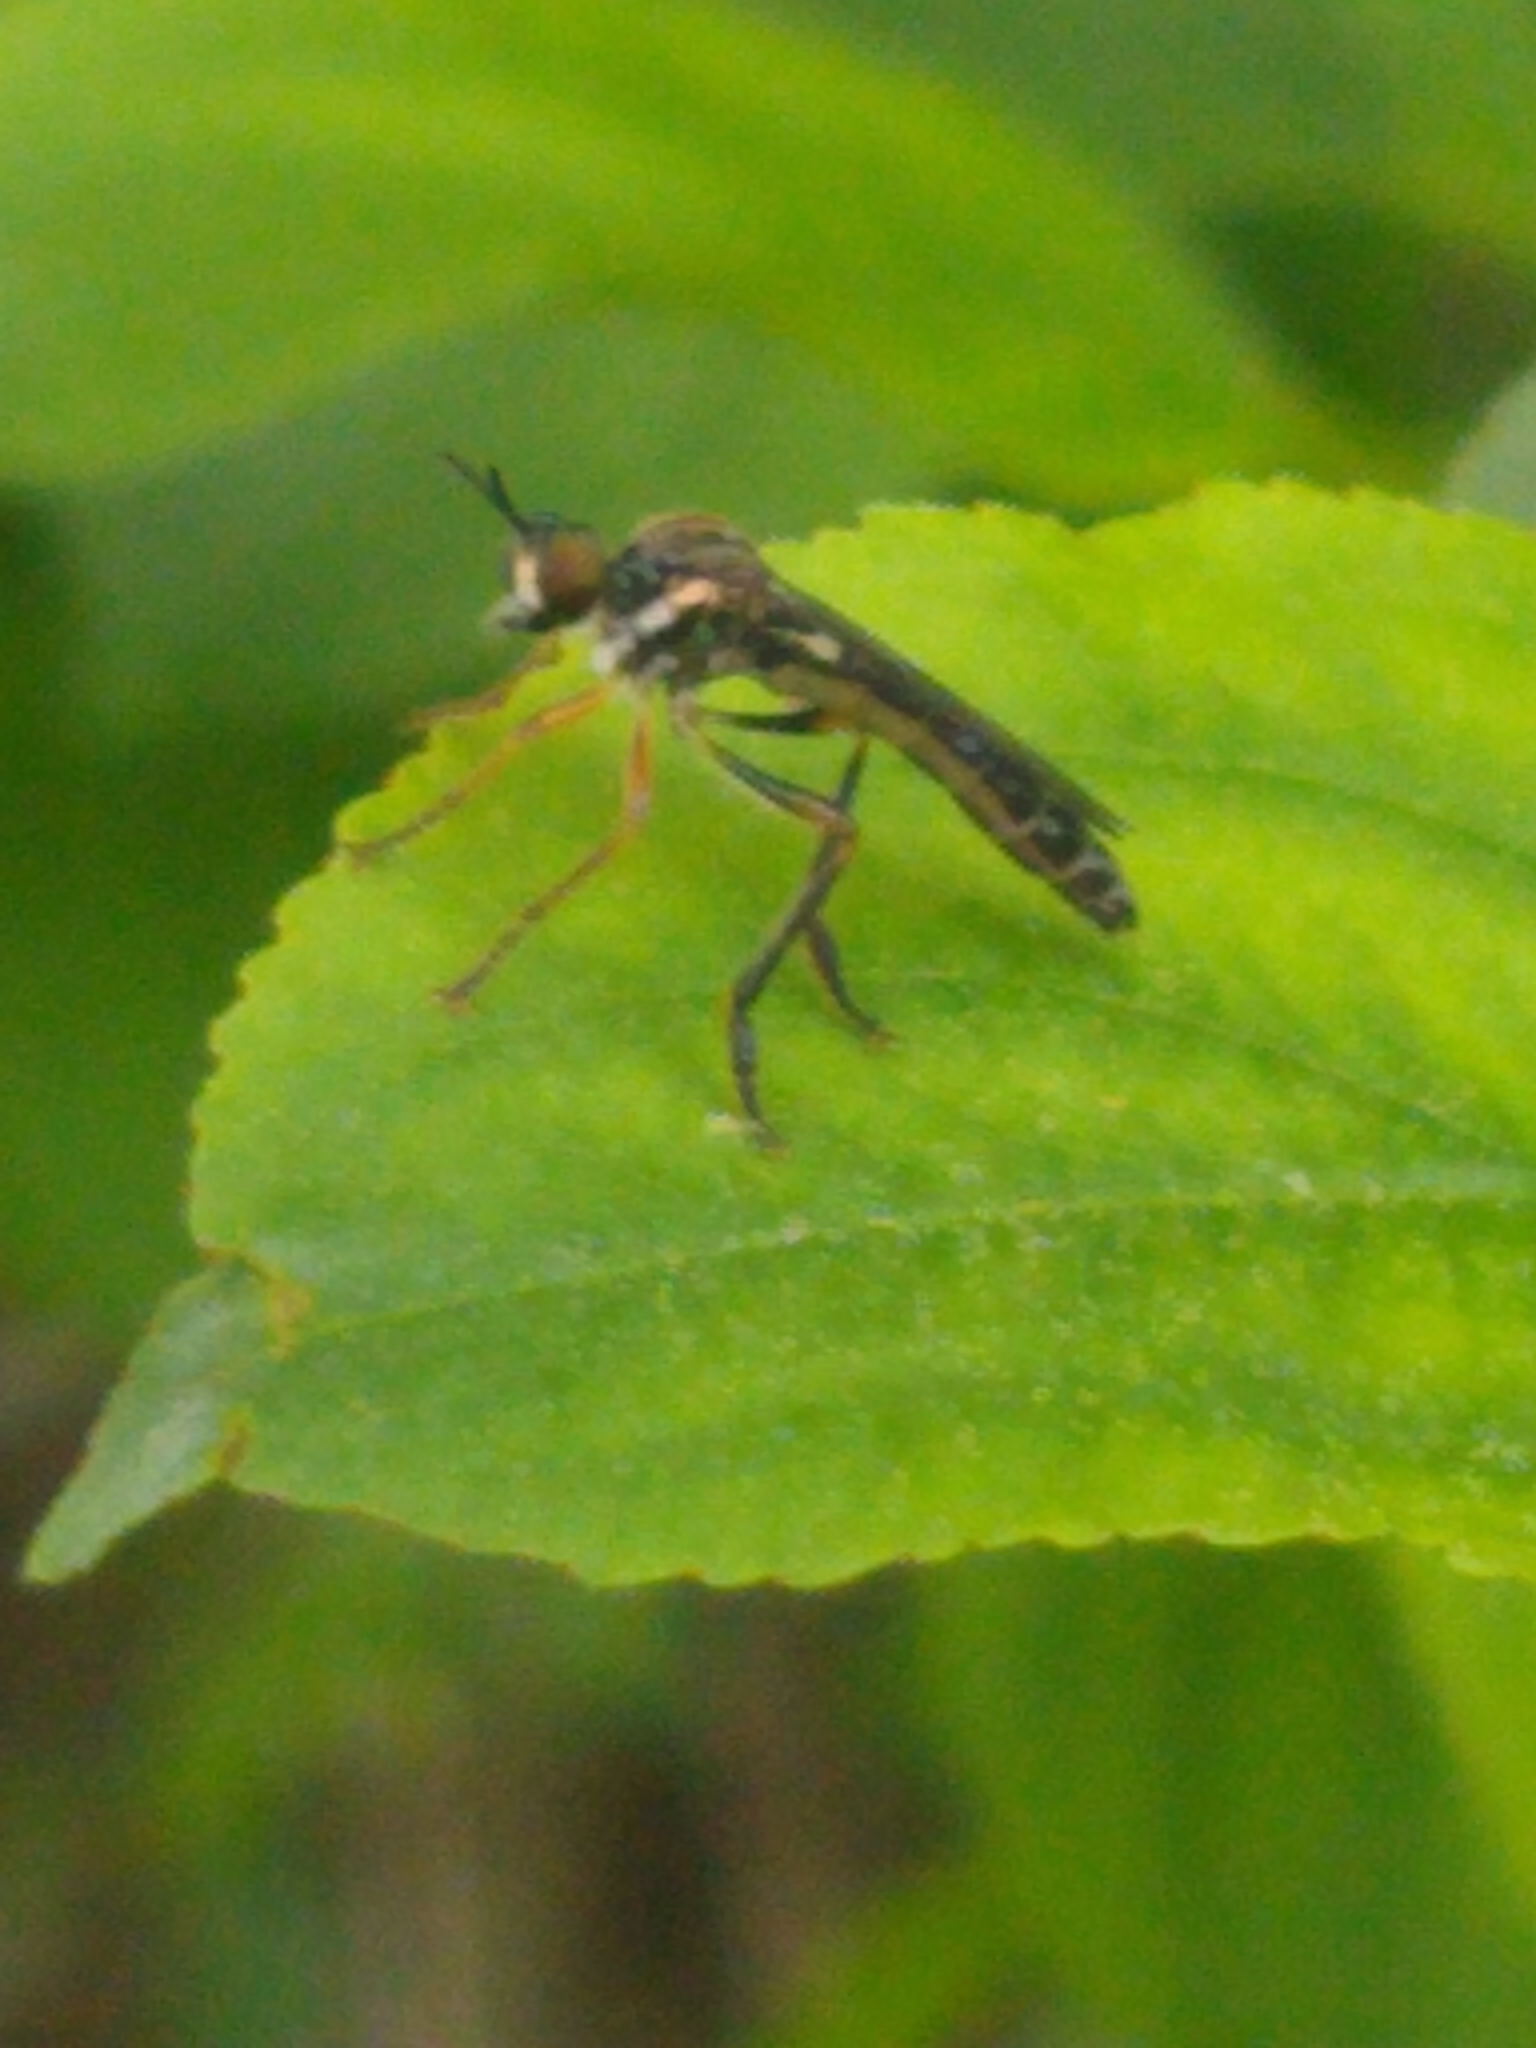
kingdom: Animalia
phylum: Arthropoda
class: Insecta
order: Diptera
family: Asilidae
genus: Dioctria
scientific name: Dioctria hyalipennis
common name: Stripe-legged robberfly
